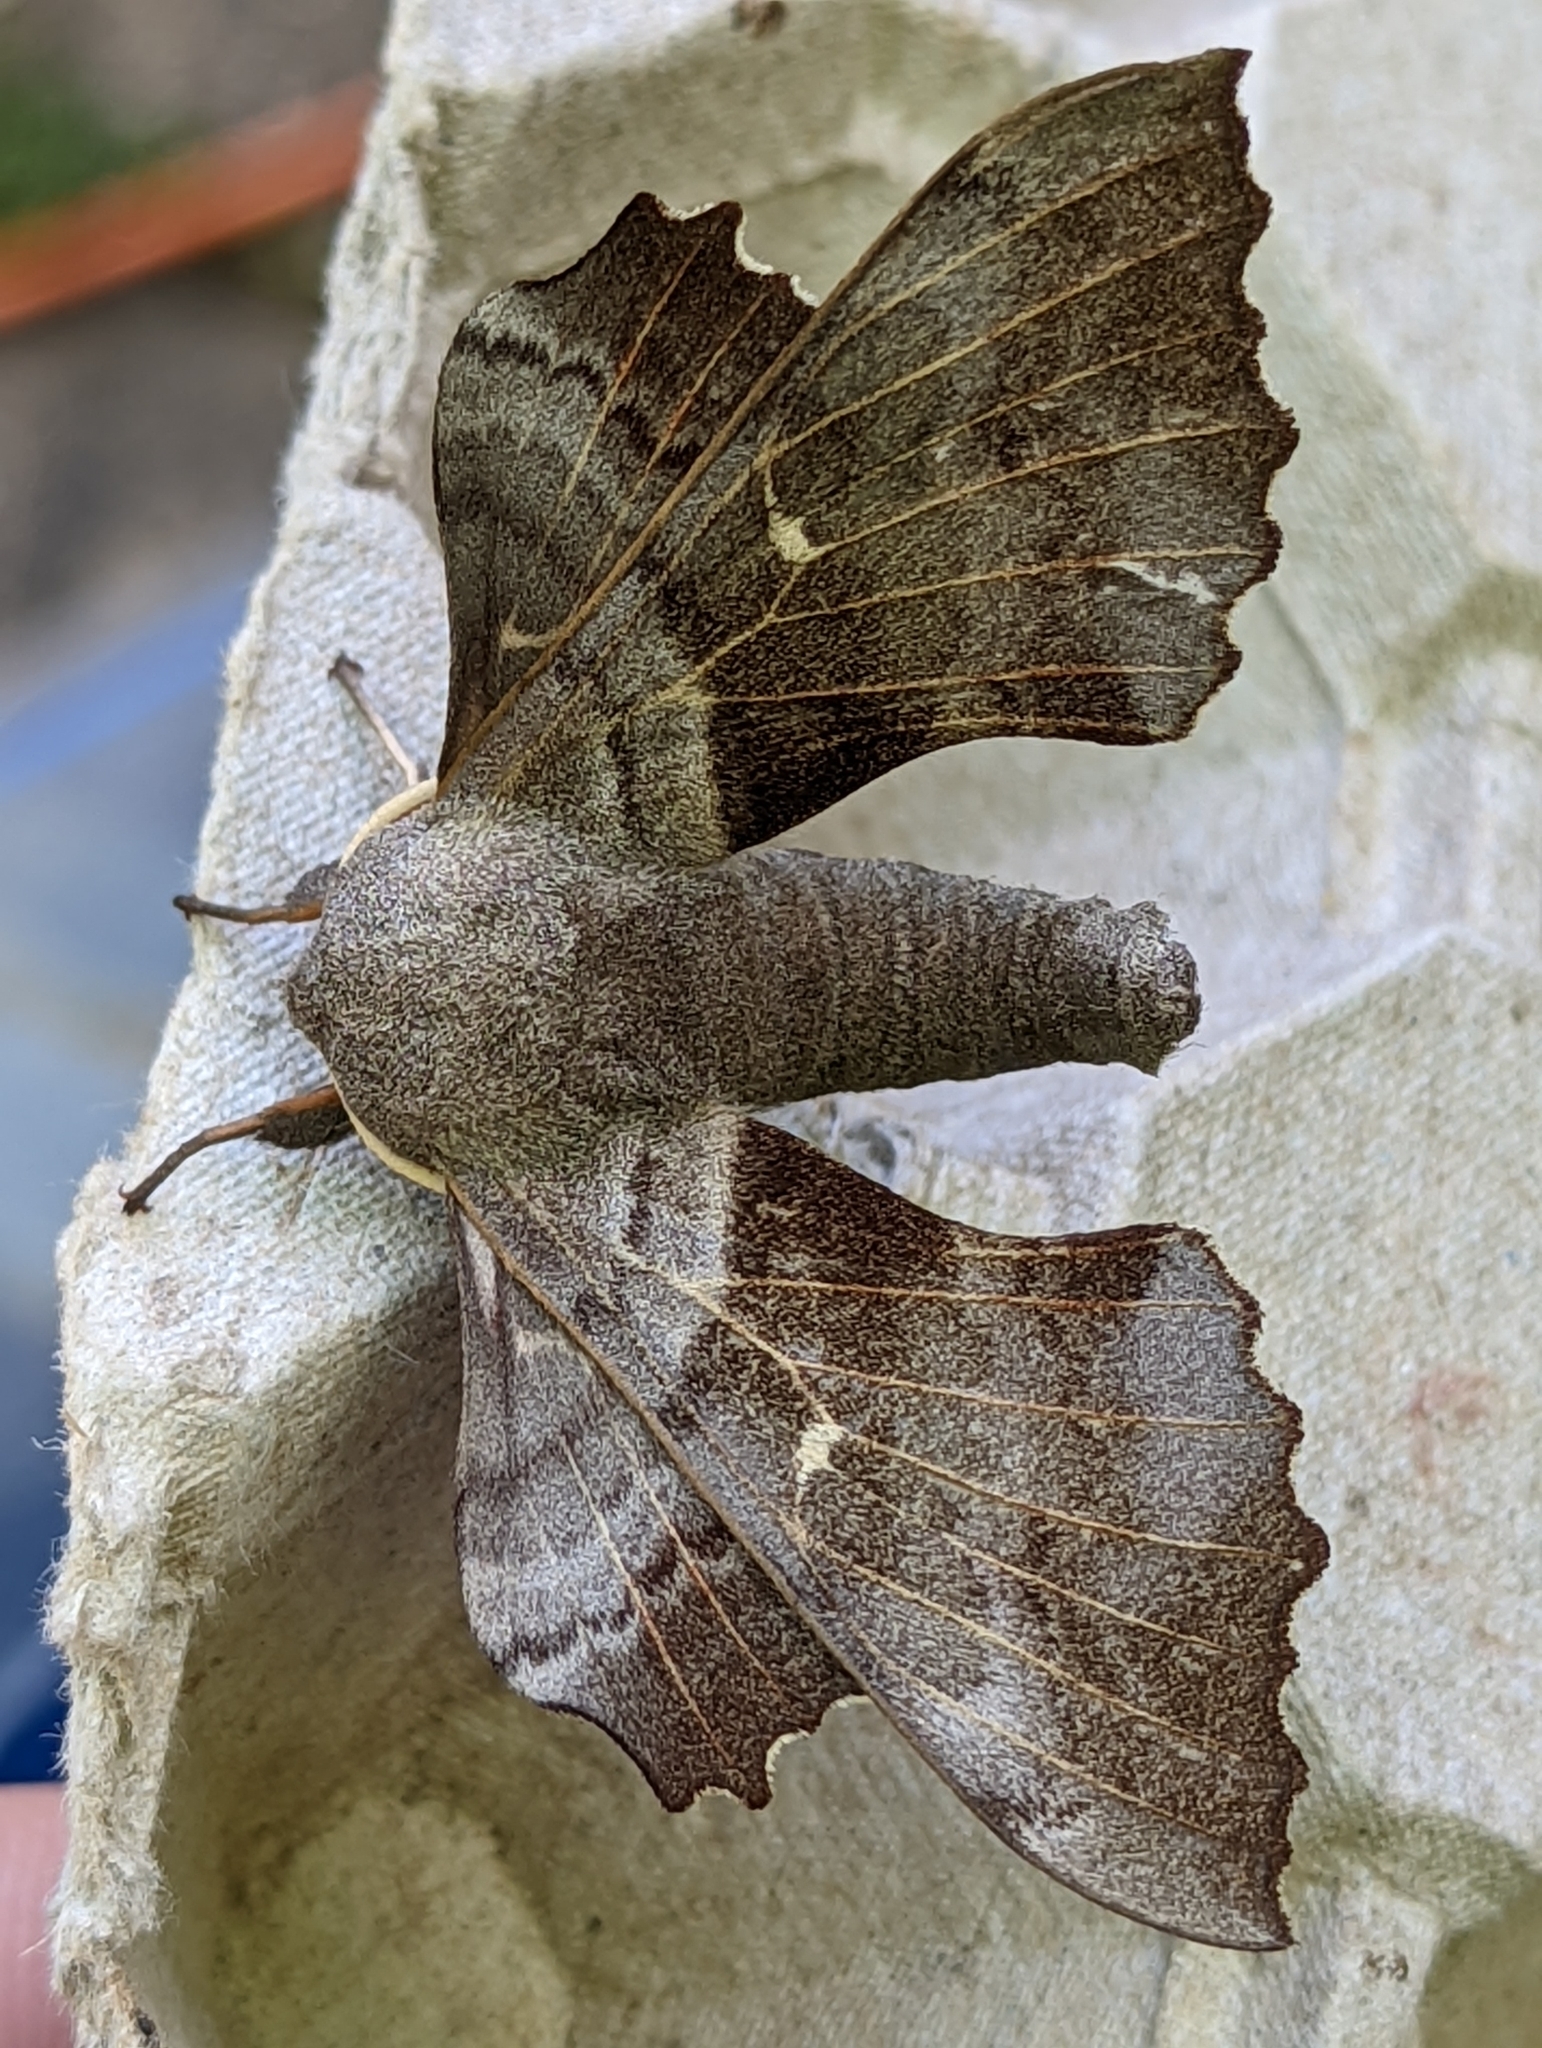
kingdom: Animalia
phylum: Arthropoda
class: Insecta
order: Lepidoptera
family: Sphingidae
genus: Laothoe
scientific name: Laothoe populi
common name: Poplar hawk-moth
